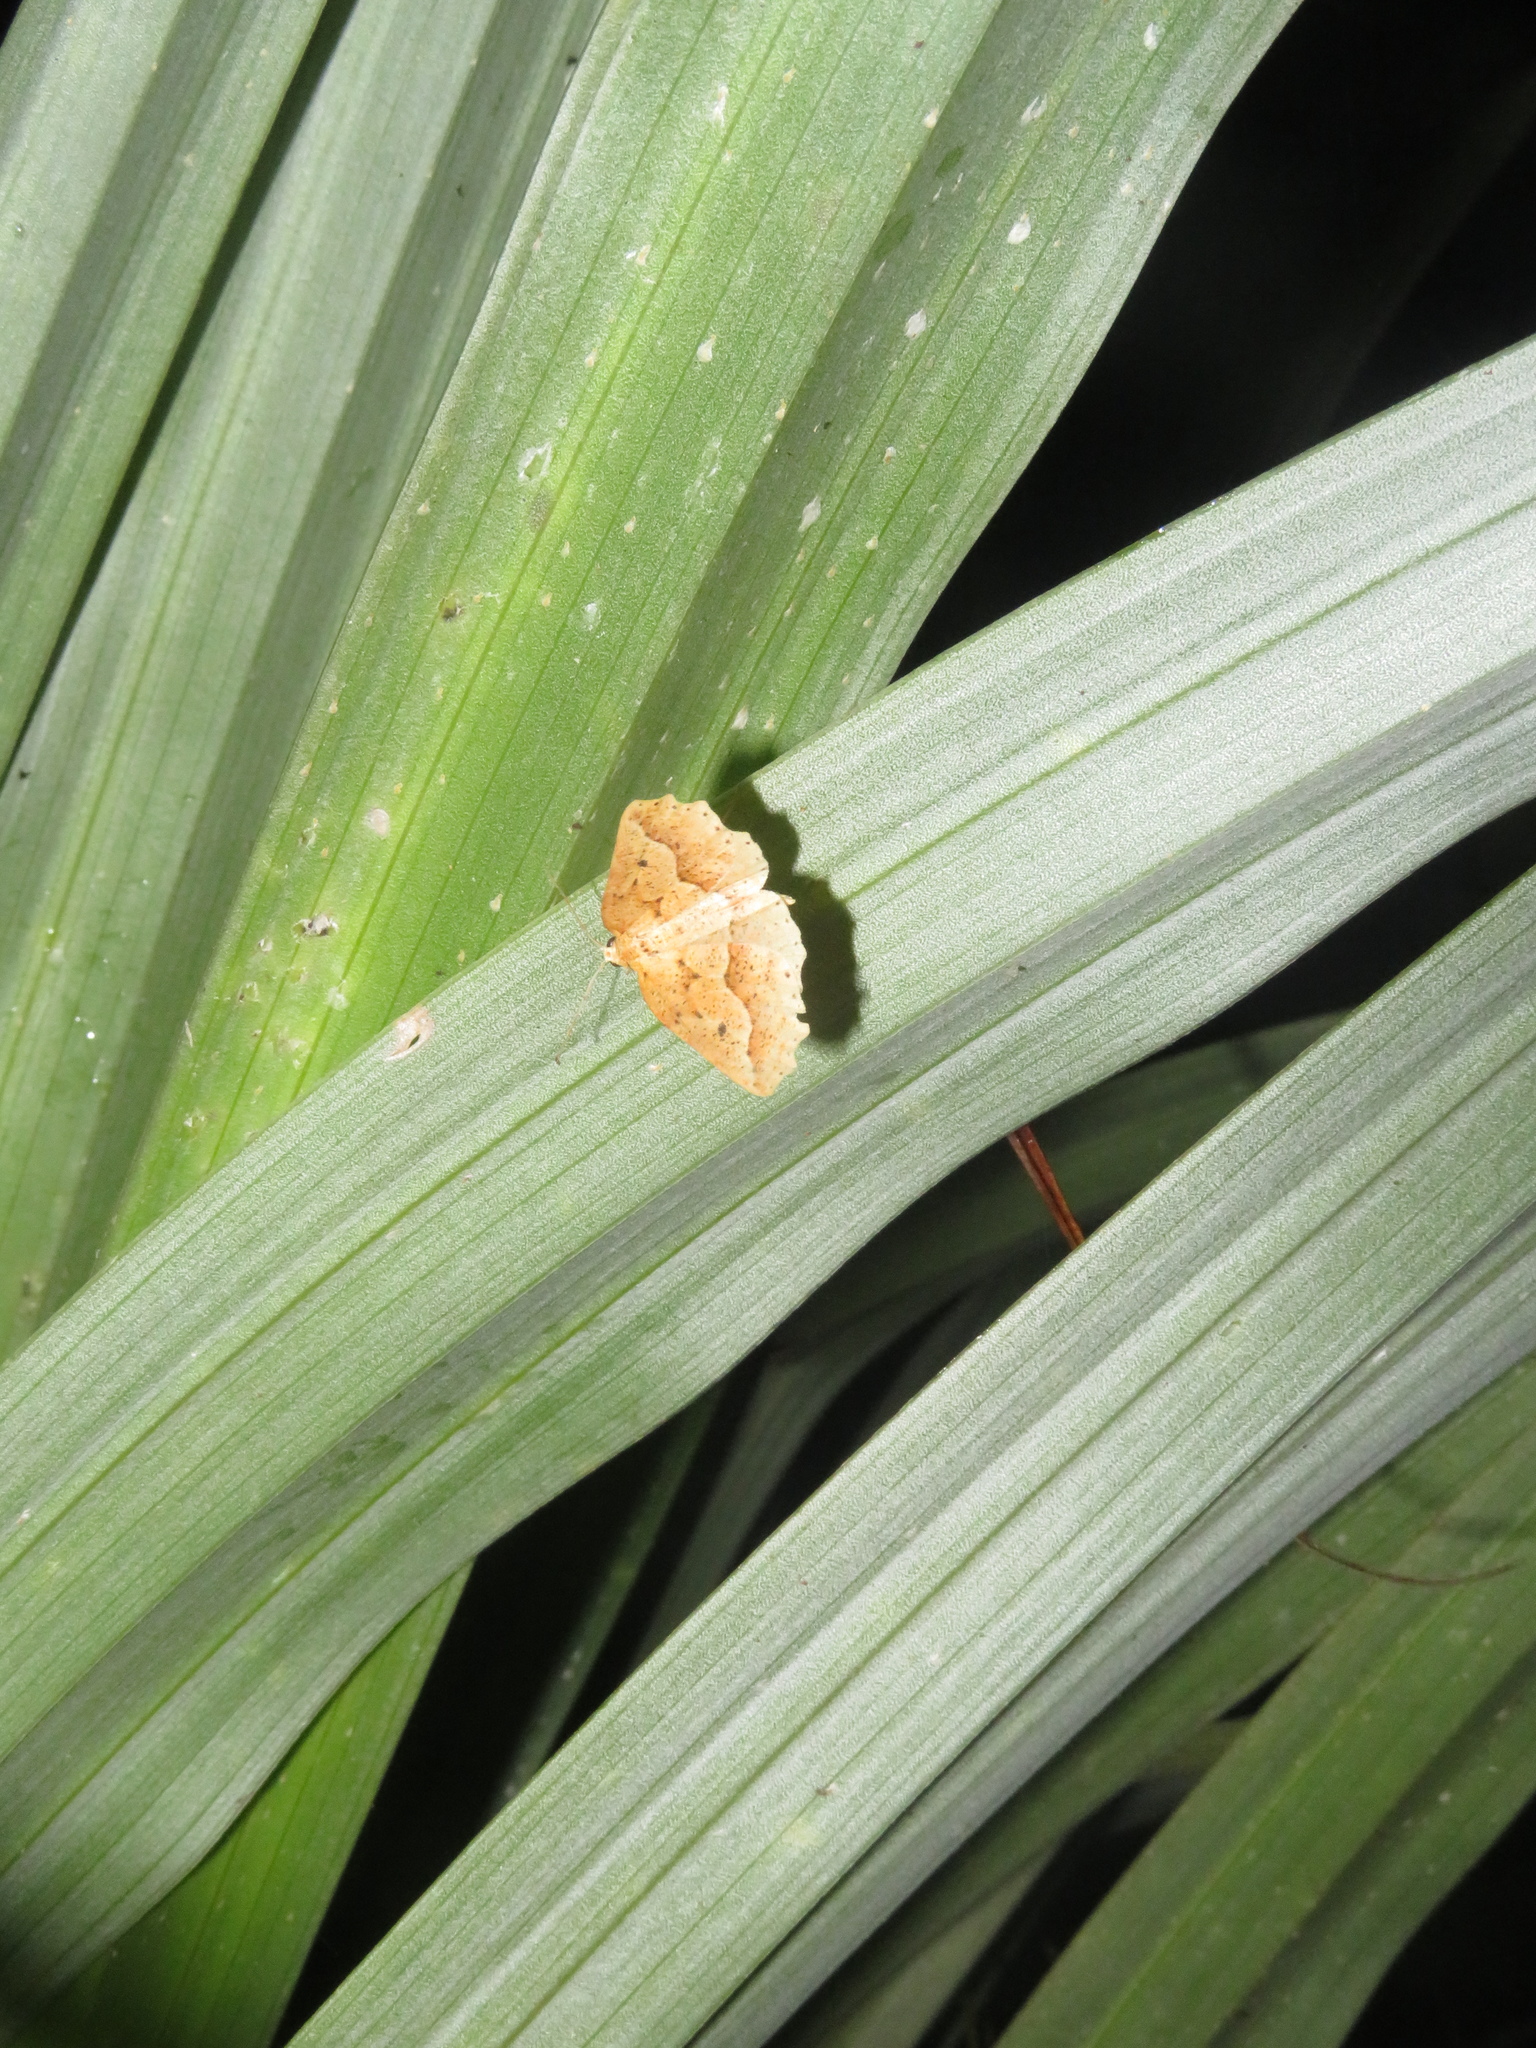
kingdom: Animalia
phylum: Arthropoda
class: Insecta
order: Lepidoptera
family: Geometridae
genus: Ischalis
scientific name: Ischalis variabilis
